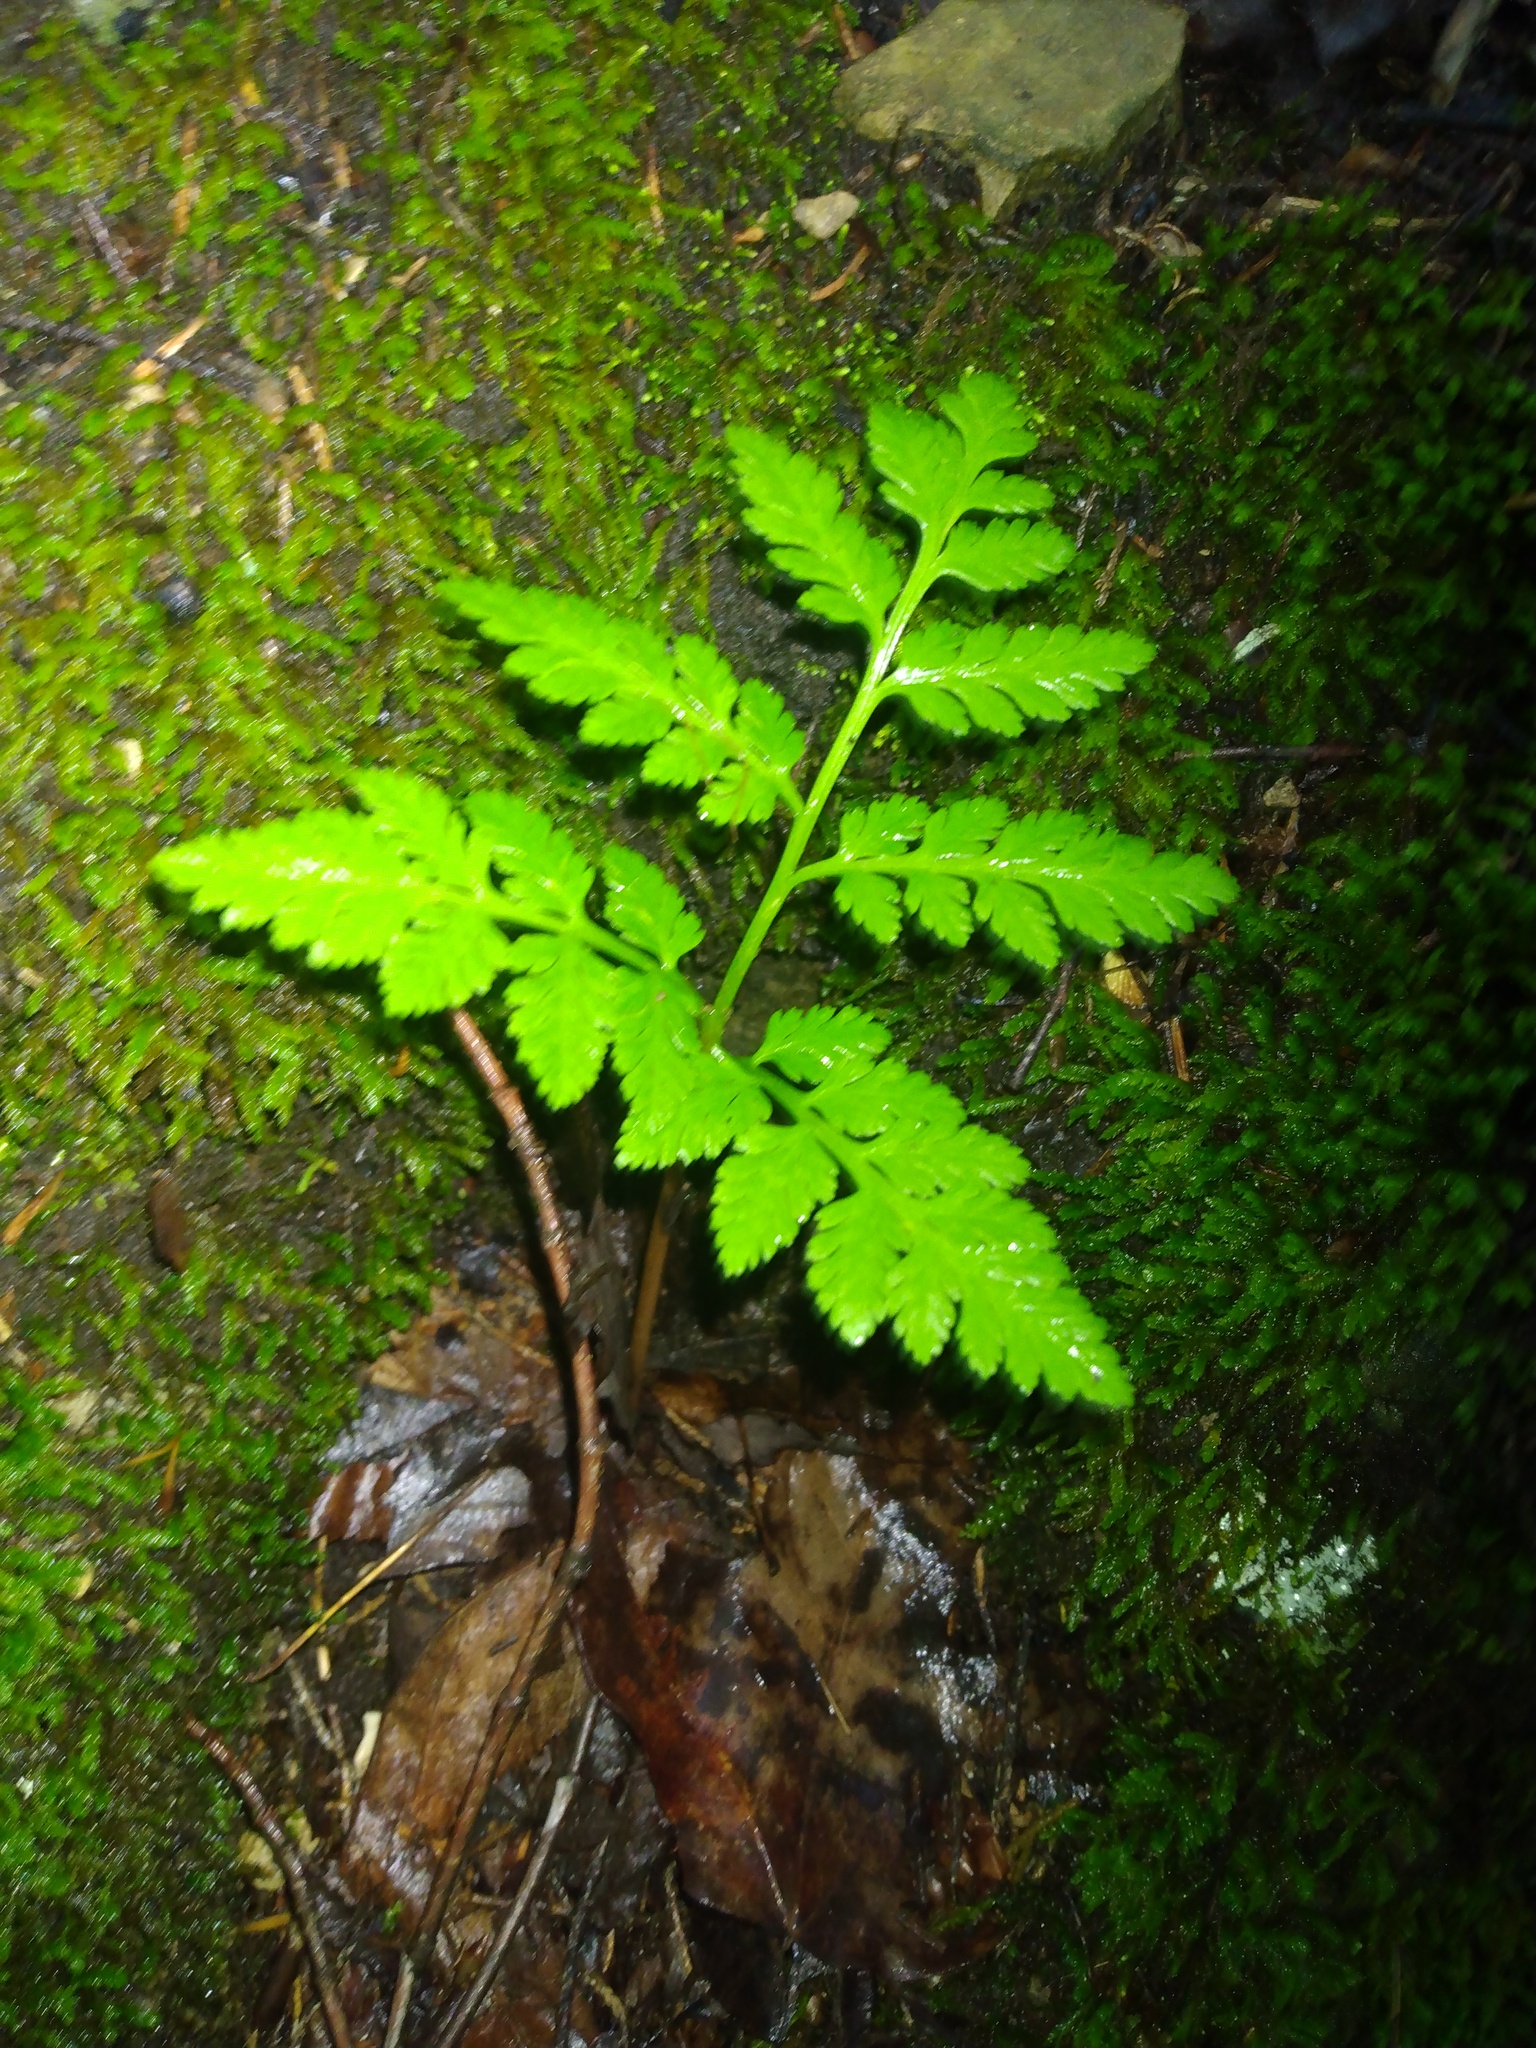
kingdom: Plantae
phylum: Tracheophyta
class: Polypodiopsida
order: Ophioglossales
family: Ophioglossaceae
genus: Botrypus
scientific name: Botrypus virginianus
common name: Common grapefern
